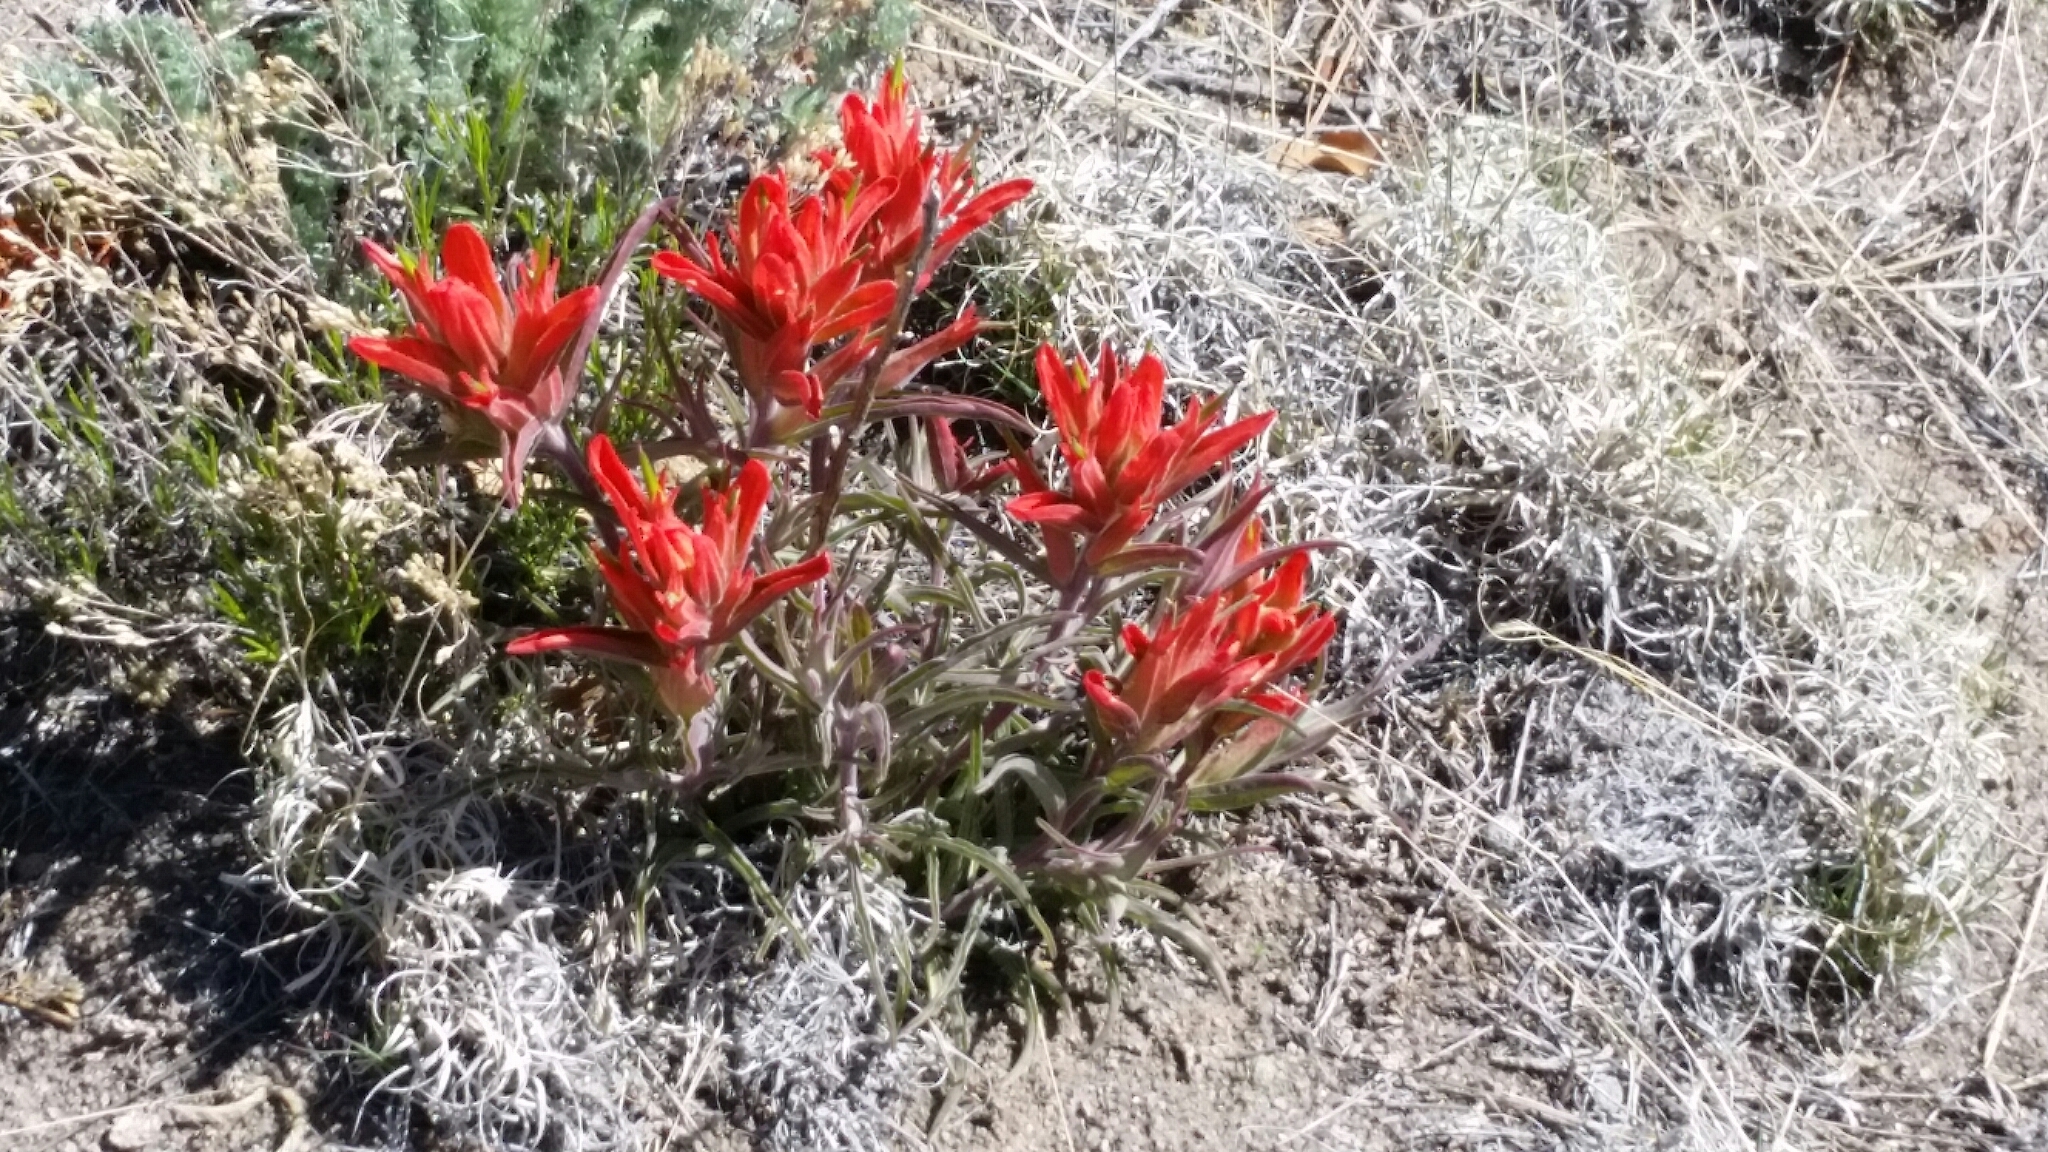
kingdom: Plantae
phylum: Tracheophyta
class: Magnoliopsida
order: Lamiales
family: Orobanchaceae
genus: Castilleja
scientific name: Castilleja integra
